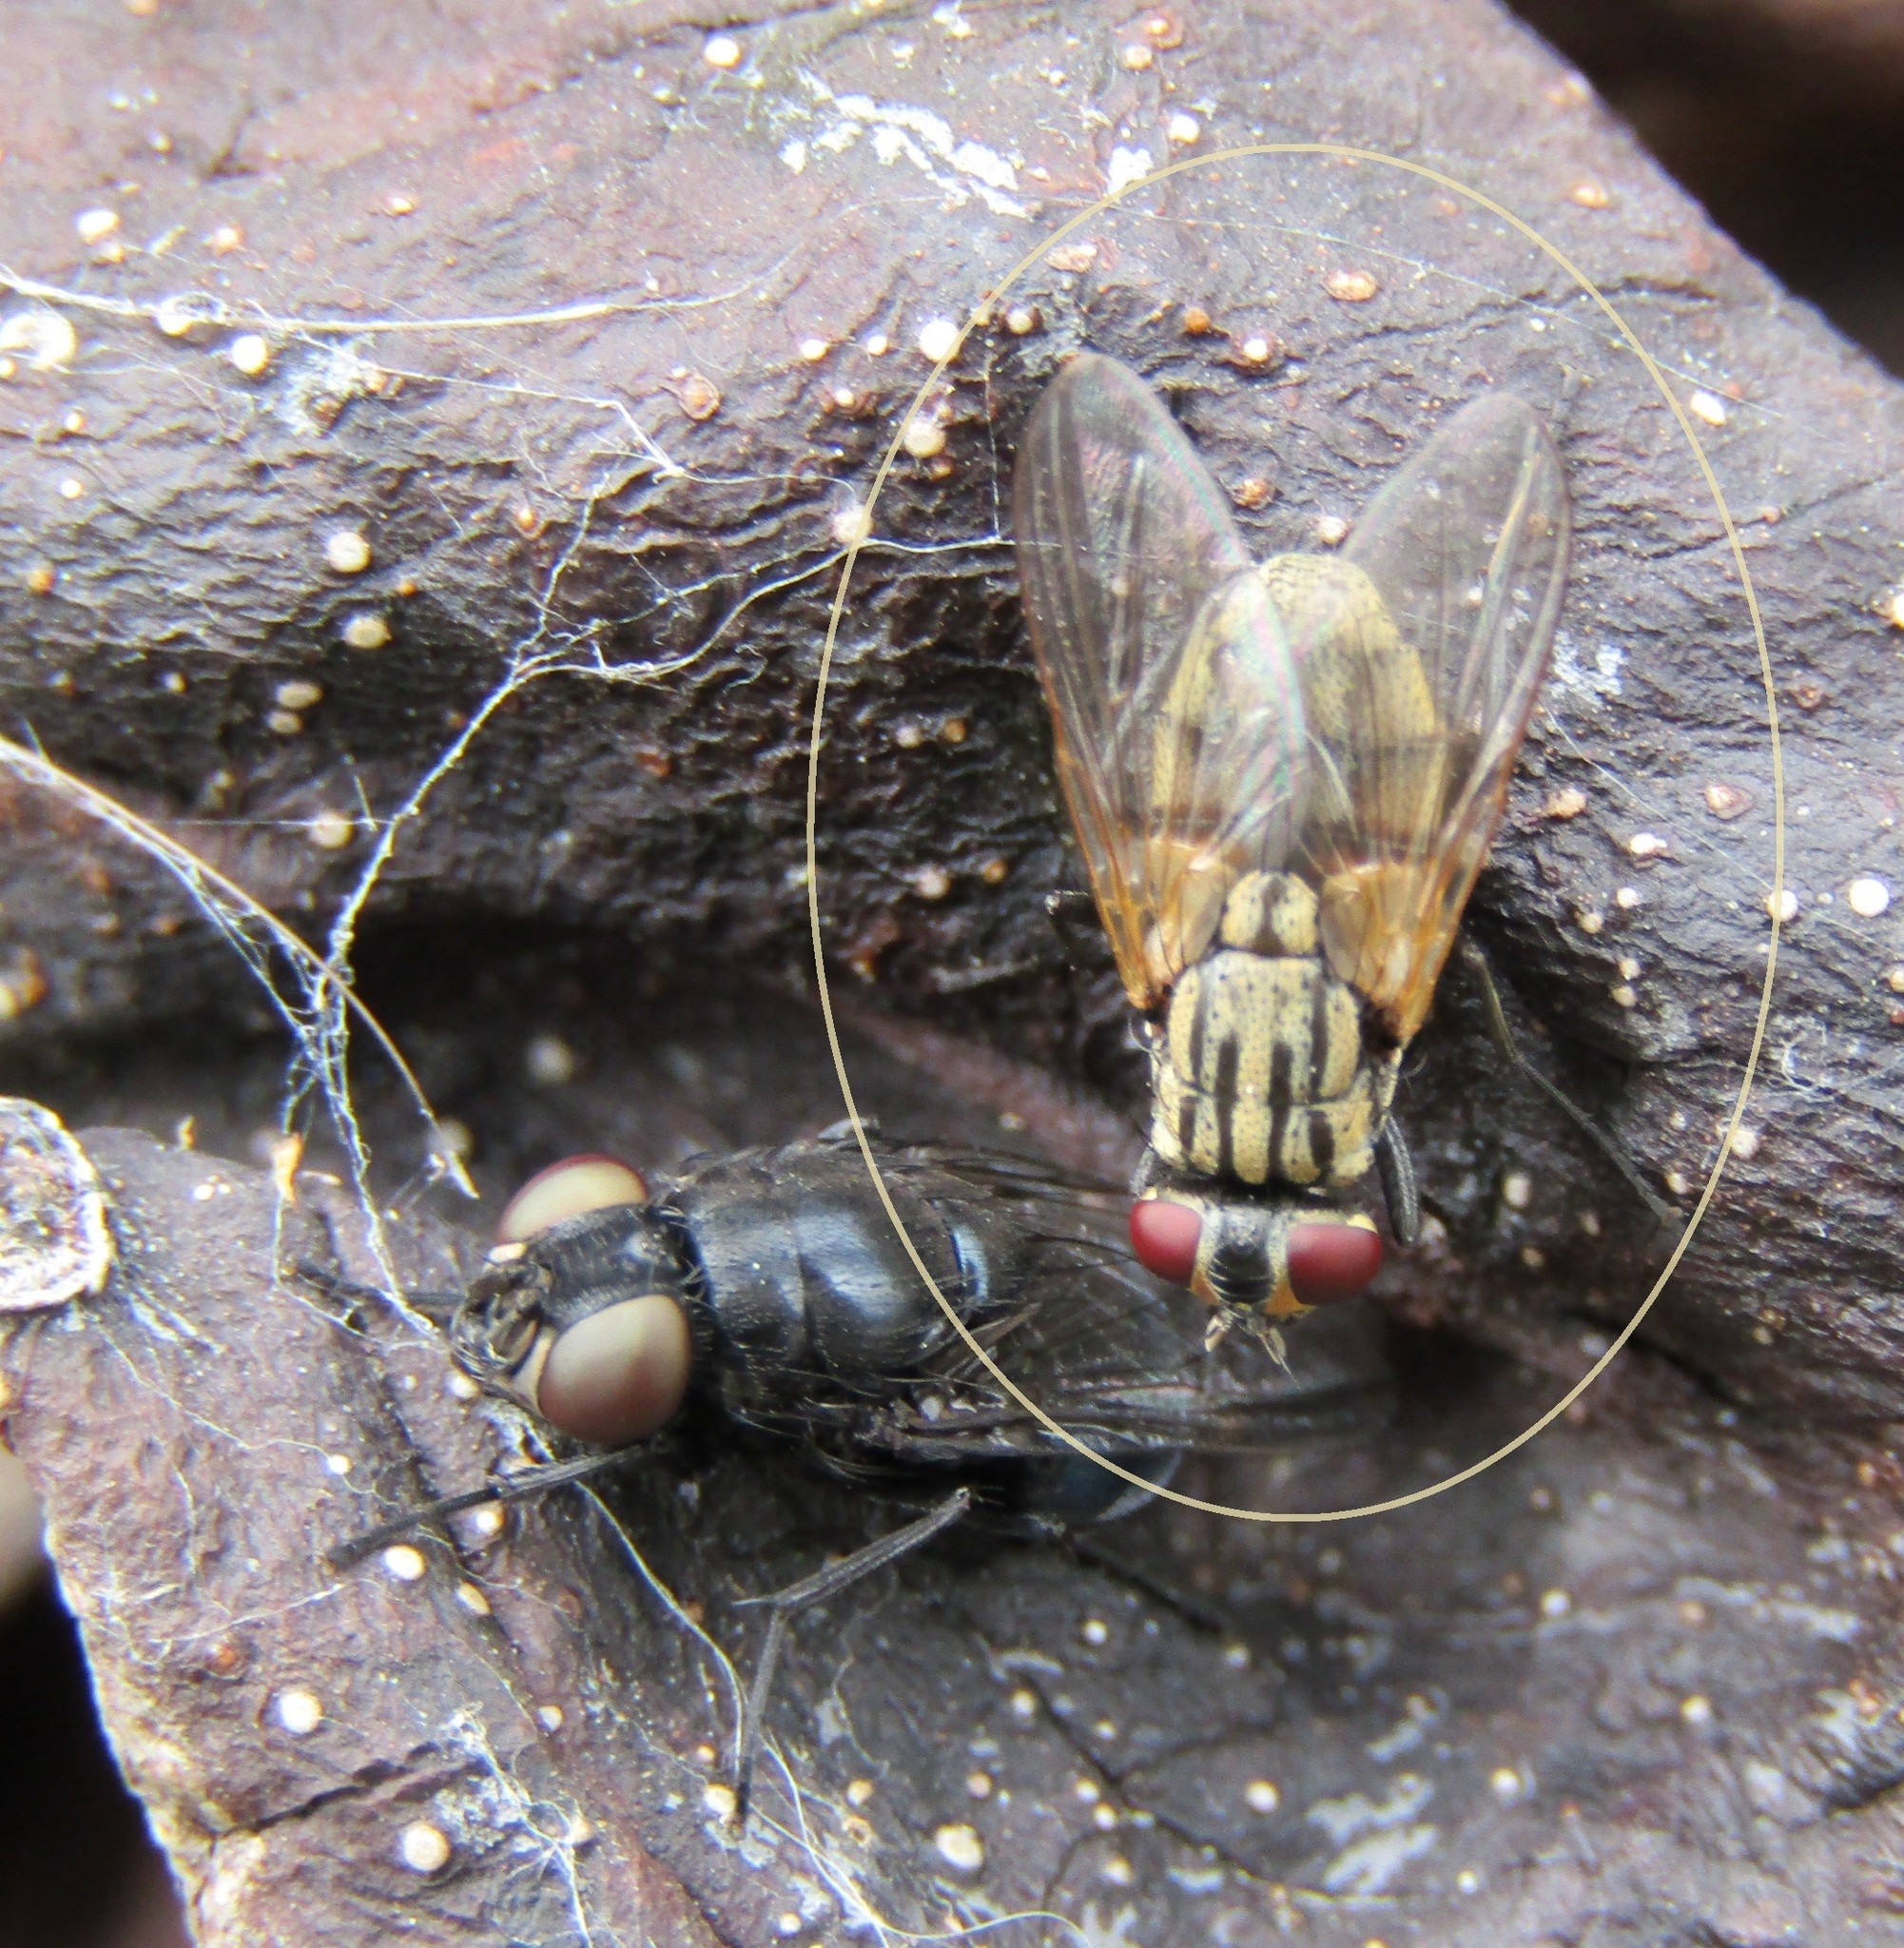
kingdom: Animalia
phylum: Arthropoda
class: Insecta
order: Diptera
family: Muscidae
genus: Musca
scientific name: Musca domestica
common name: House fly
